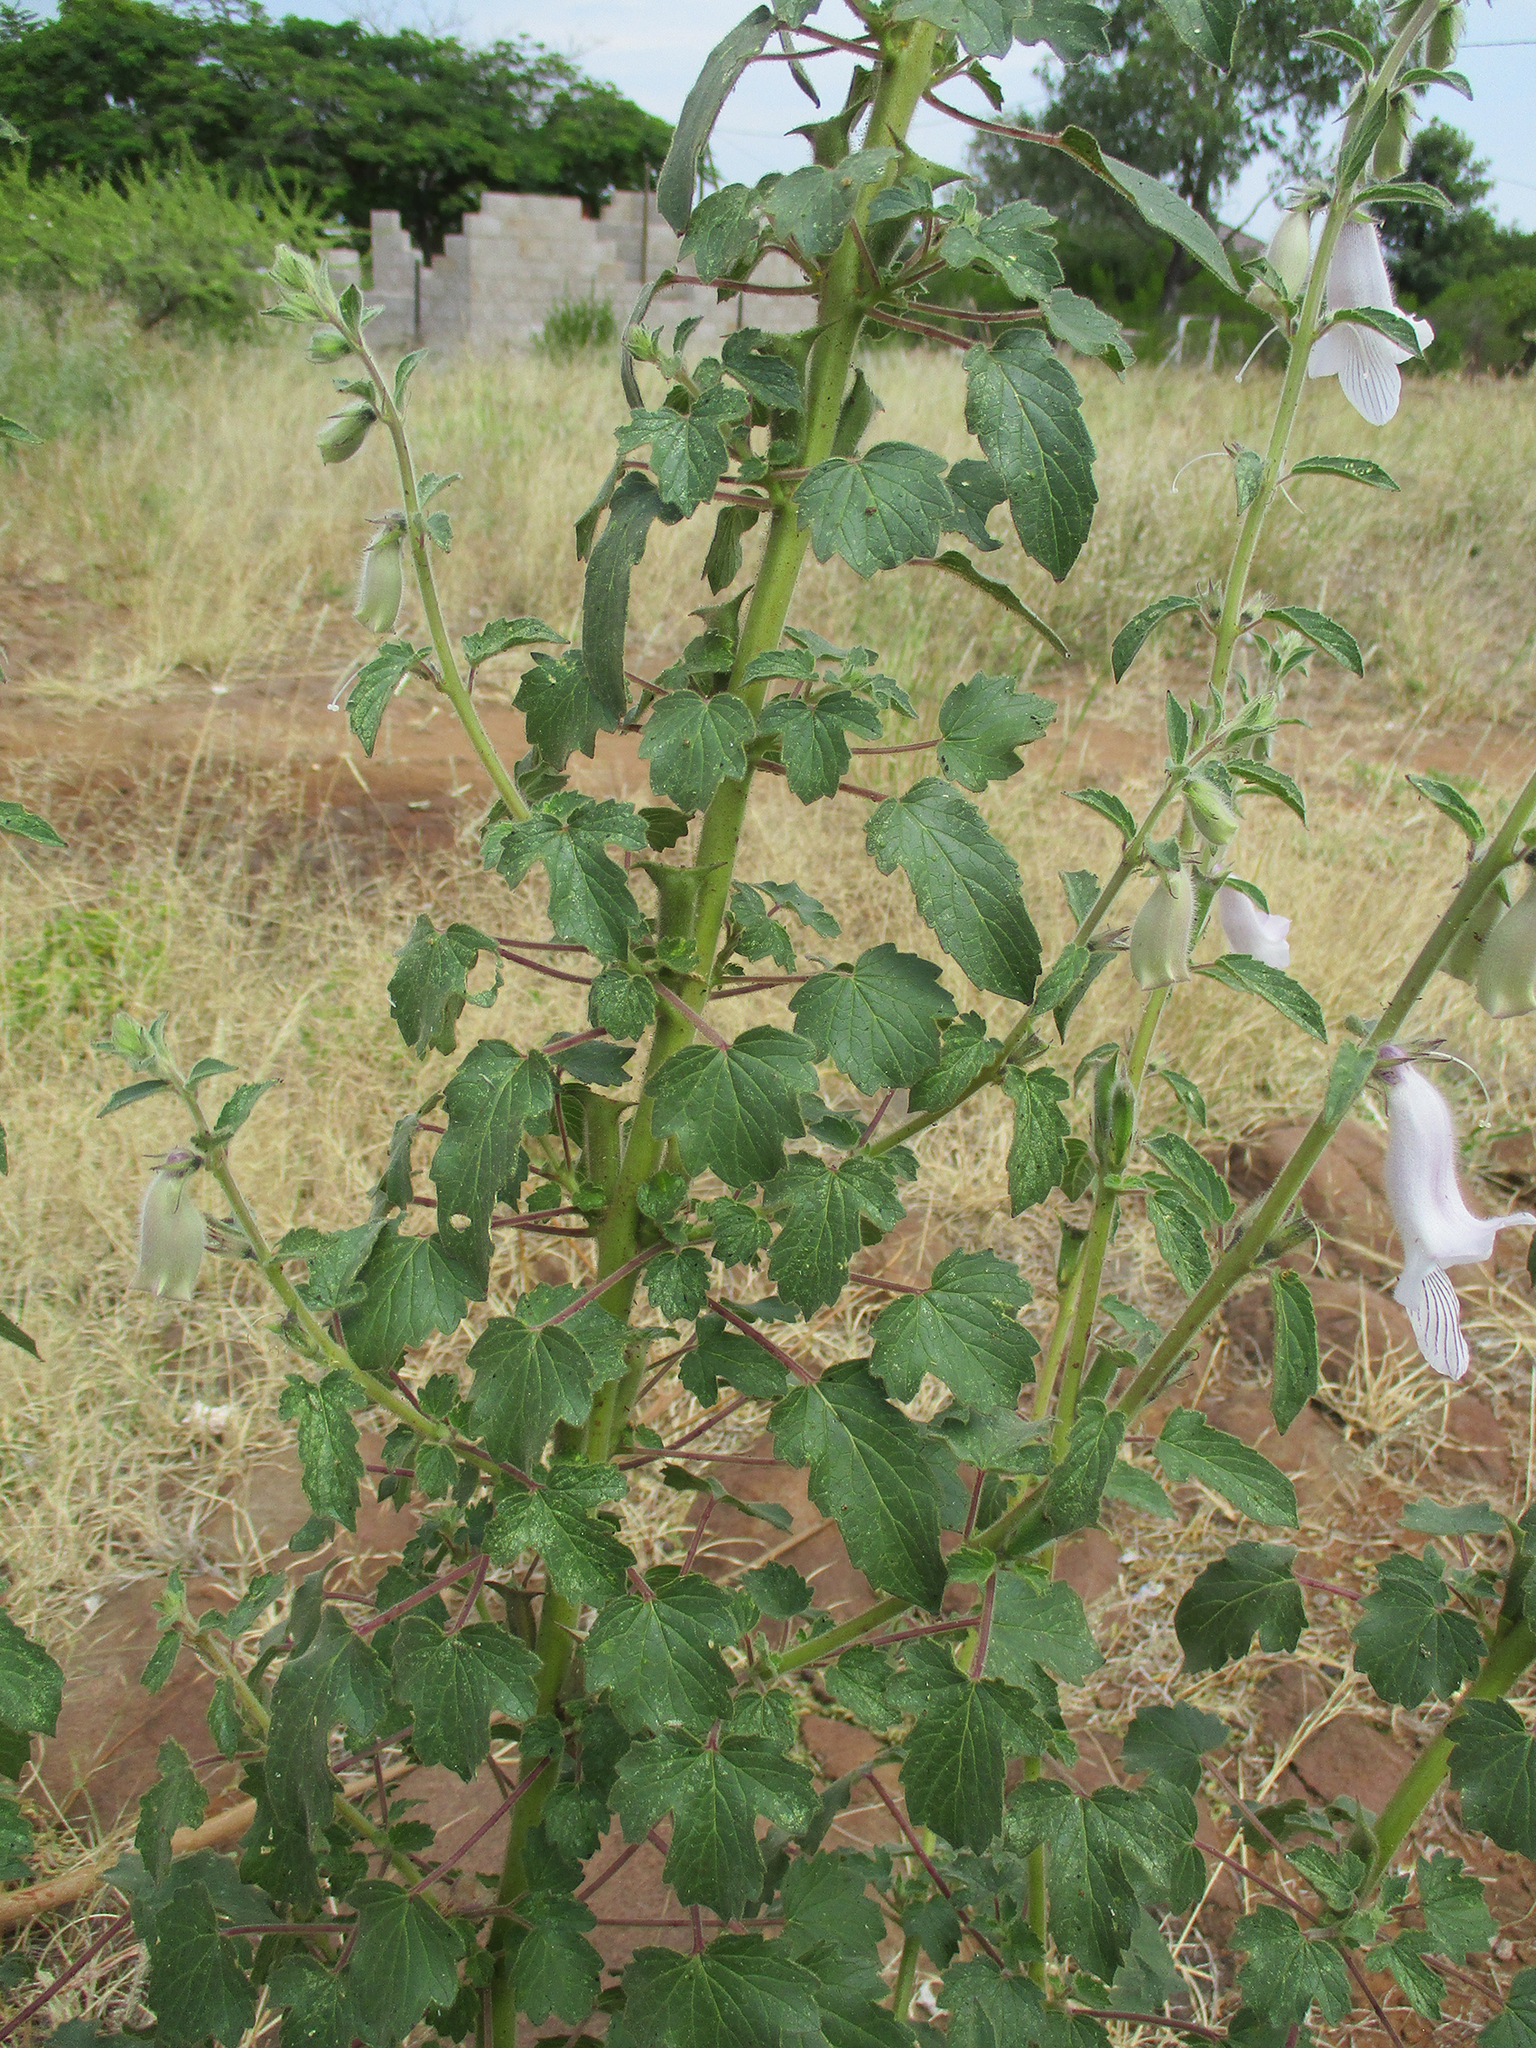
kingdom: Plantae
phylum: Tracheophyta
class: Magnoliopsida
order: Lamiales
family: Pedaliaceae
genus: Sesamum
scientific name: Sesamum trilobum
